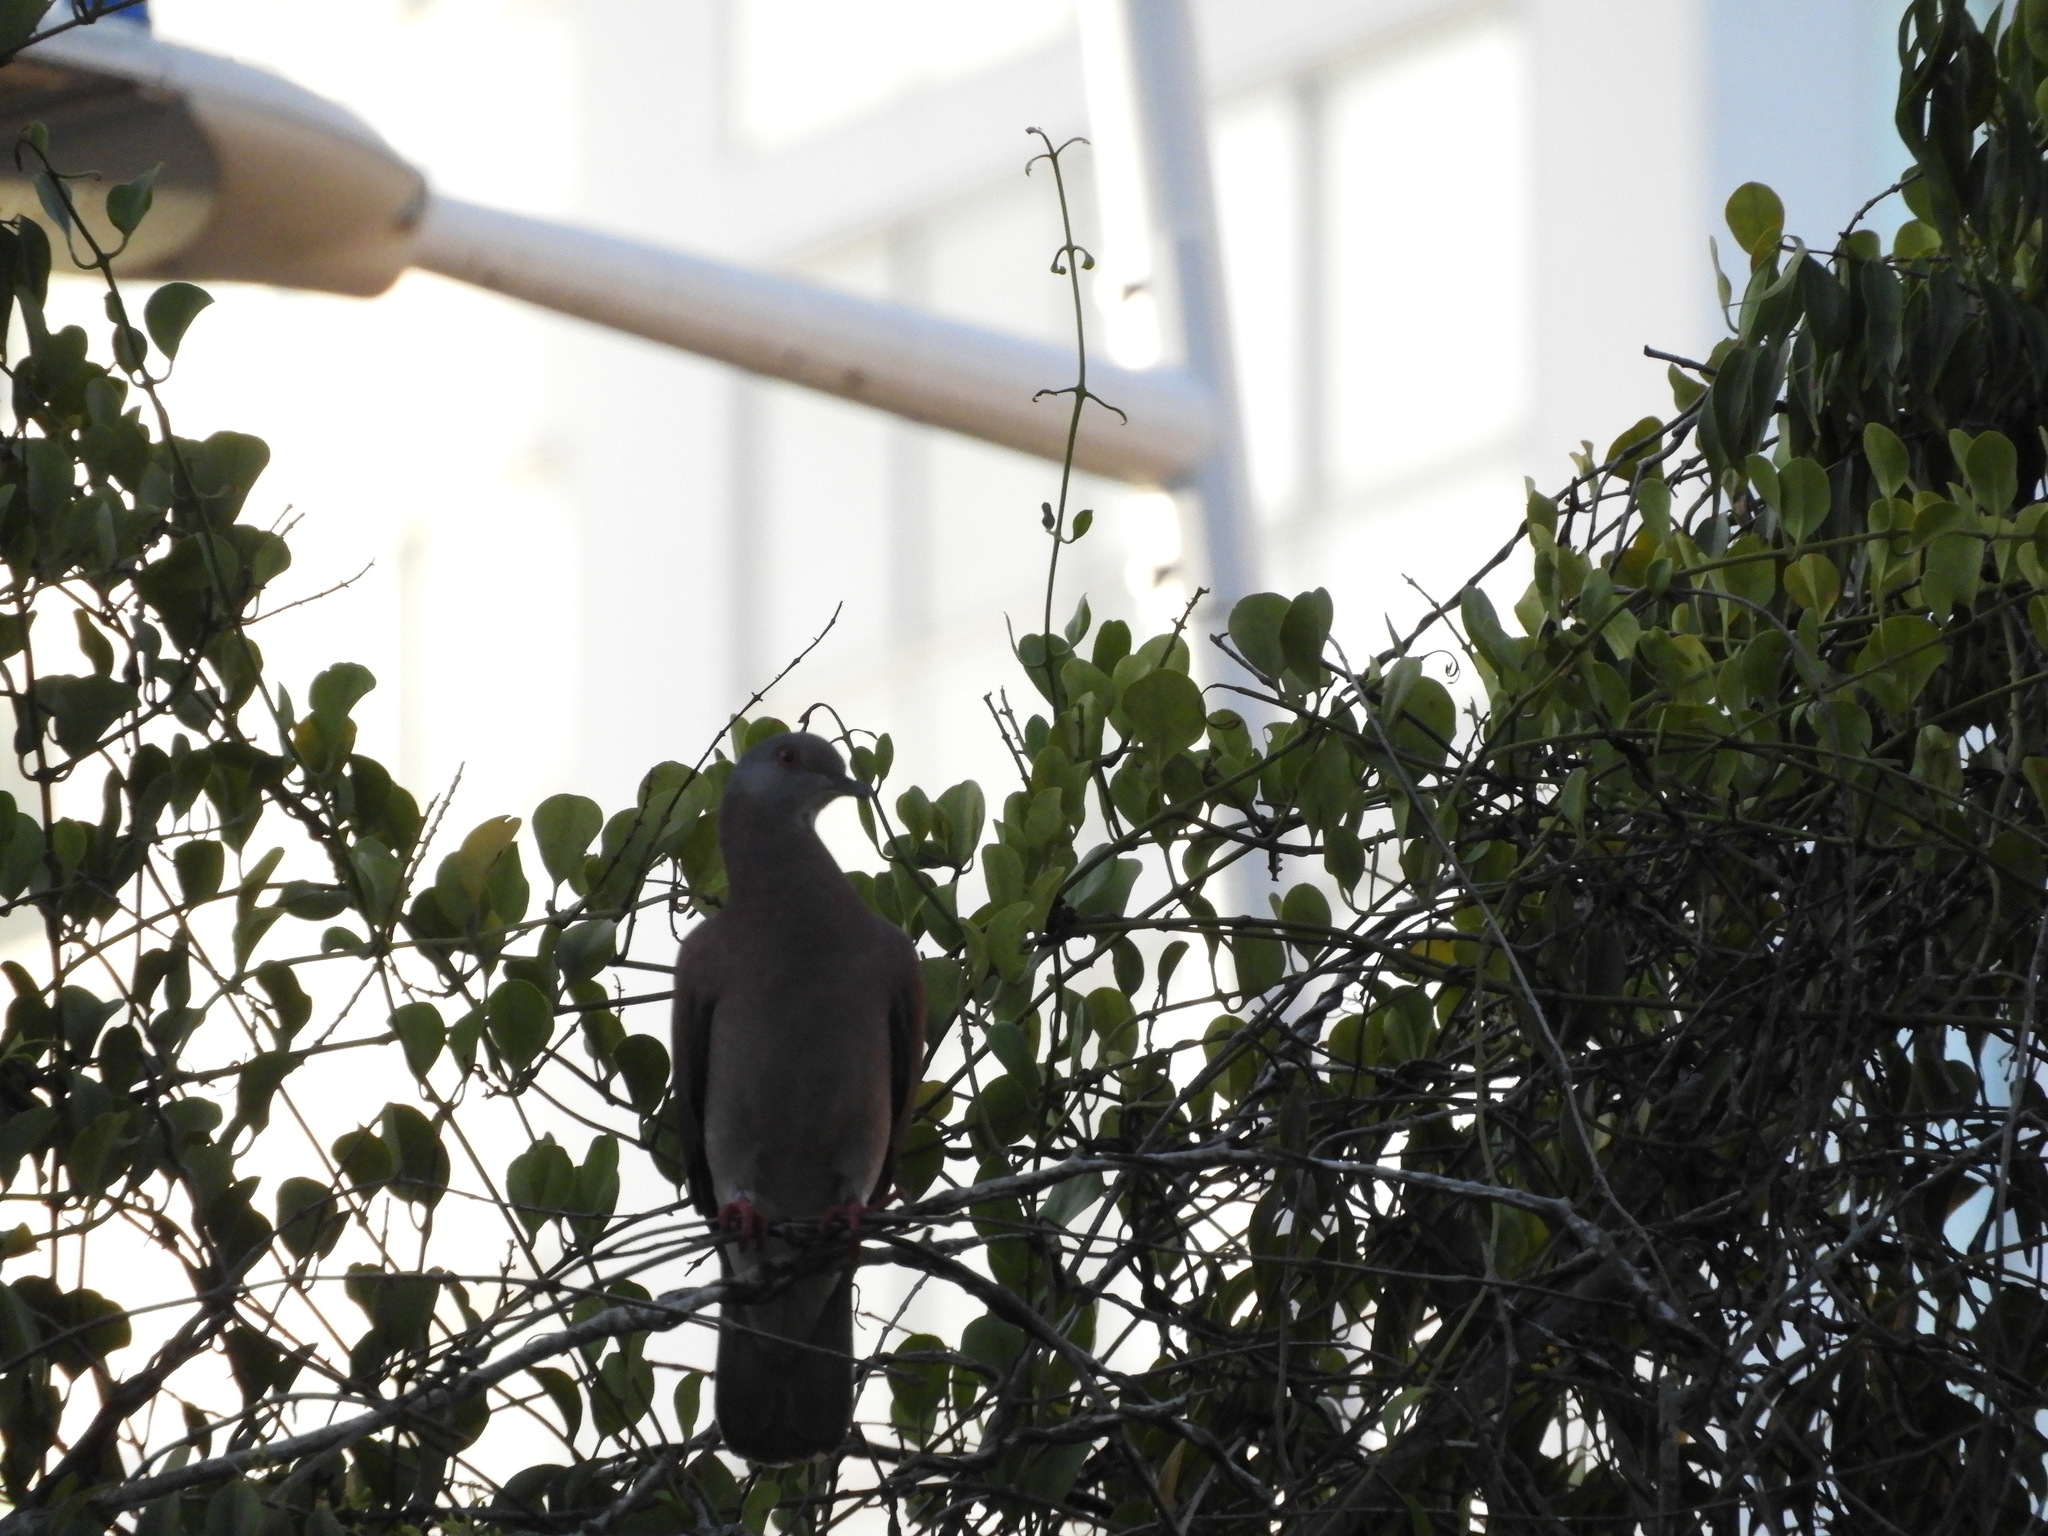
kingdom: Animalia
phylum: Chordata
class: Aves
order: Columbiformes
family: Columbidae
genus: Patagioenas
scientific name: Patagioenas cayennensis
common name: Pale-vented pigeon
